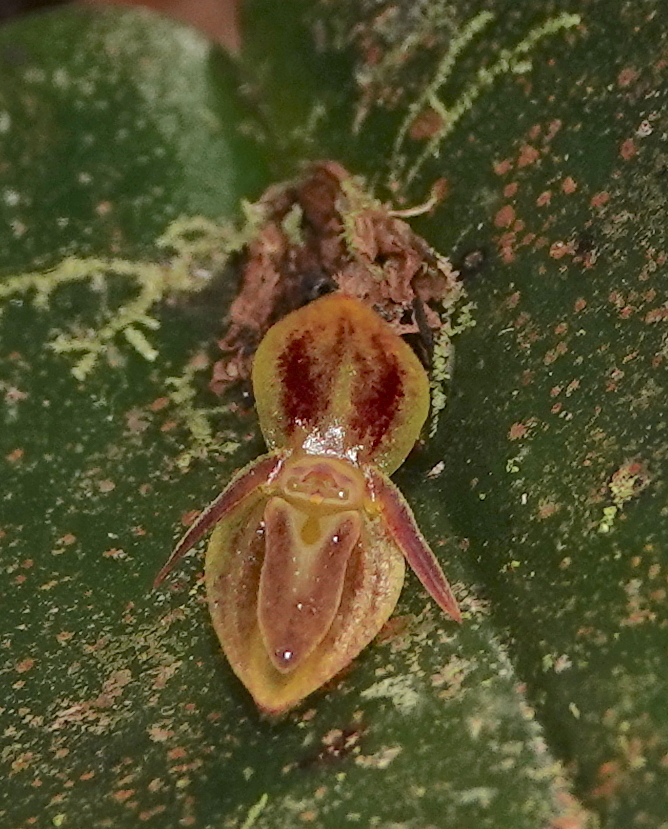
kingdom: Plantae
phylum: Tracheophyta
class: Liliopsida
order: Asparagales
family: Orchidaceae
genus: Pleurothallis
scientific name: Pleurothallis matudana
